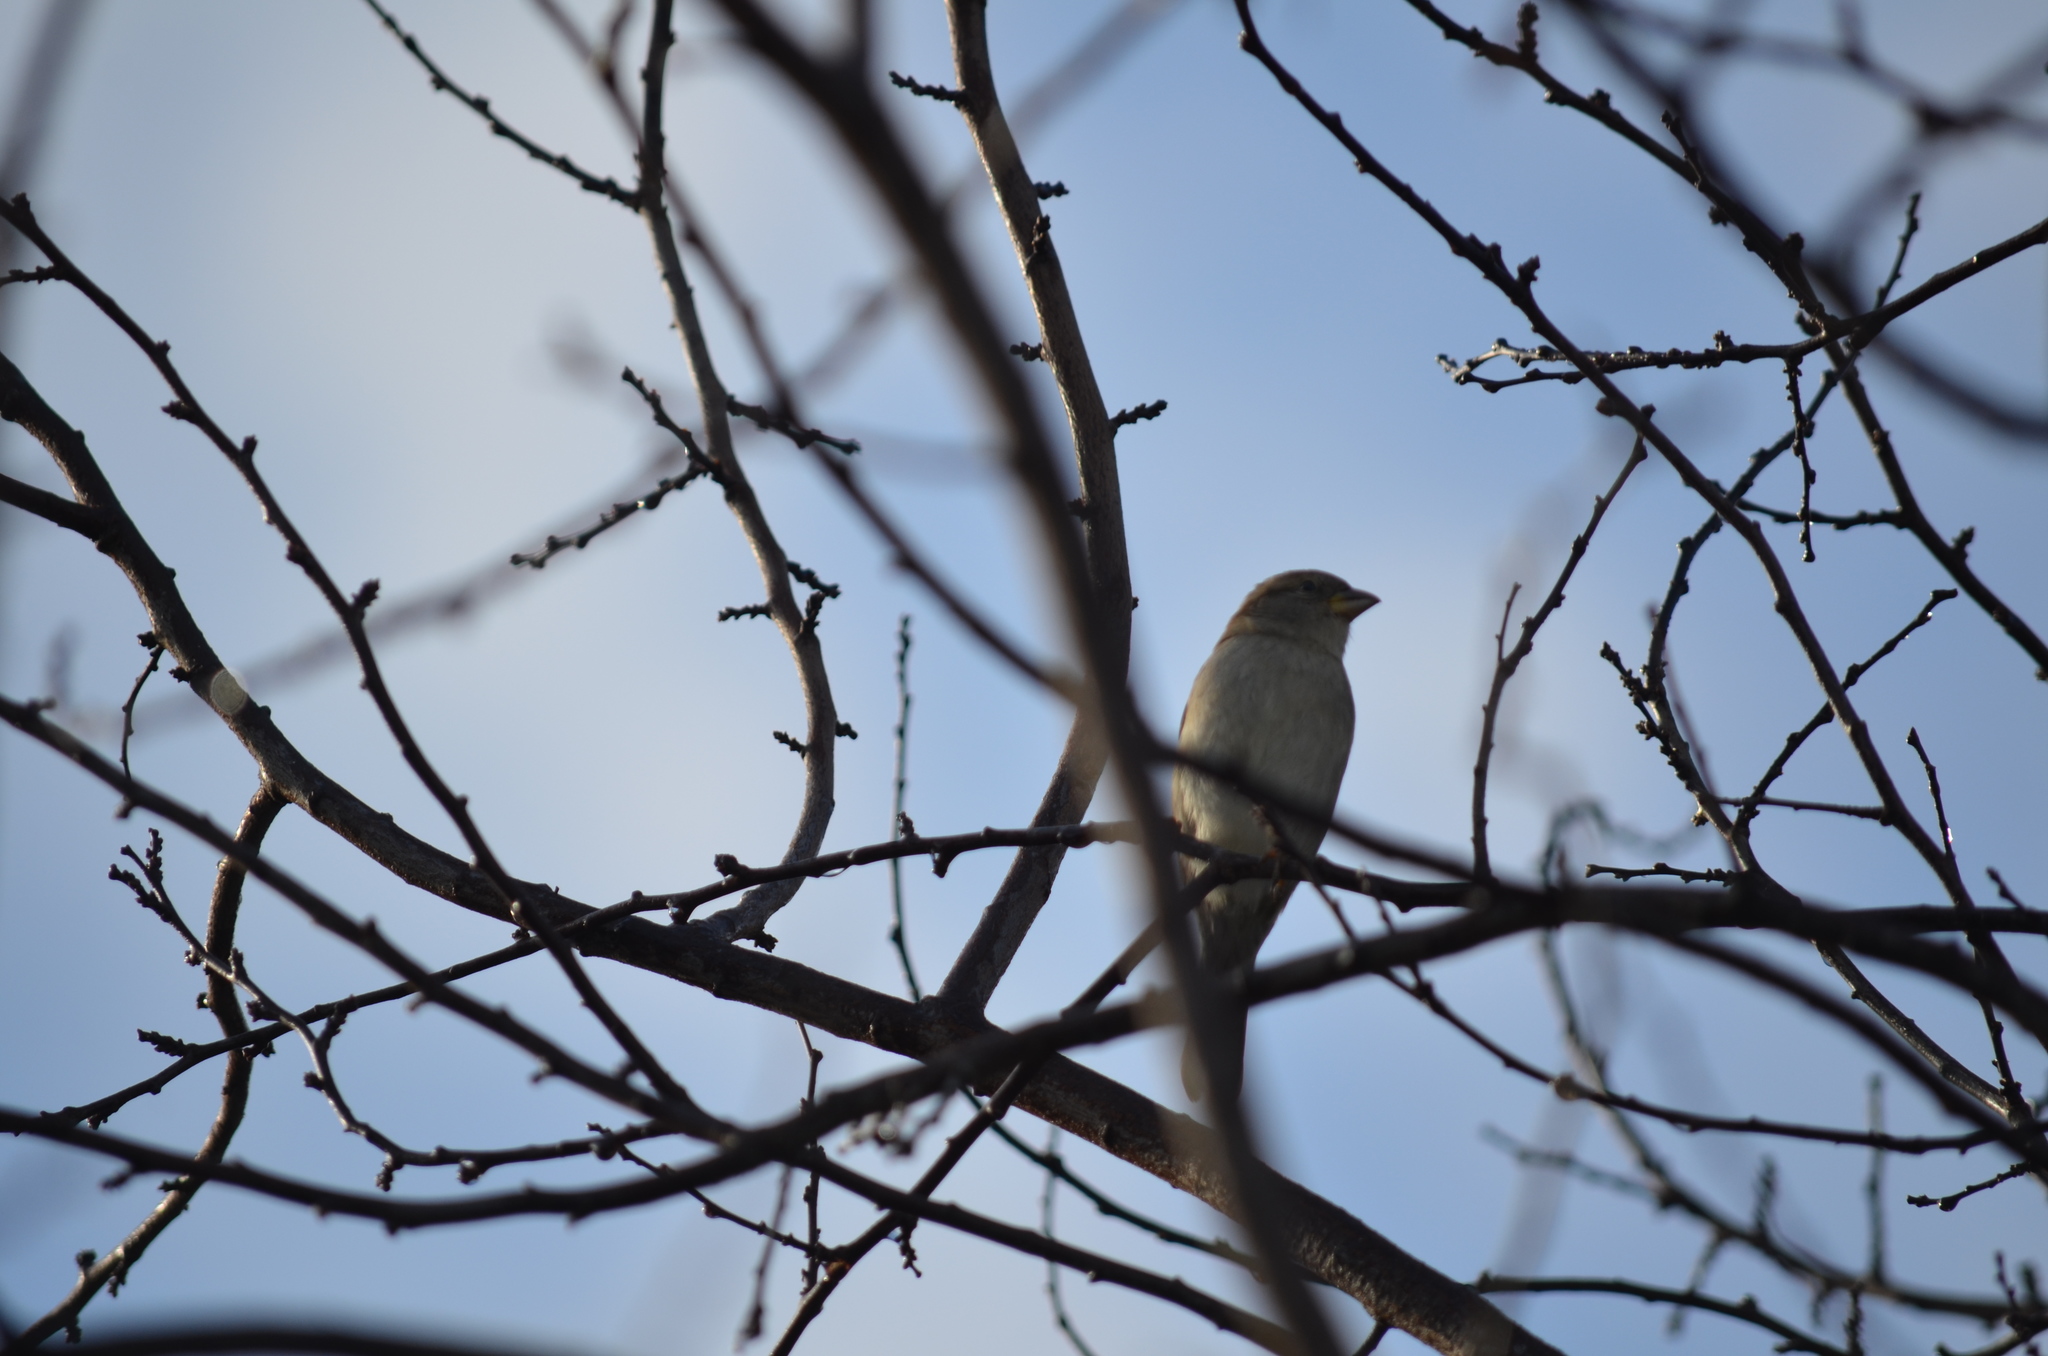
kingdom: Animalia
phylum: Chordata
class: Aves
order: Passeriformes
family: Passeridae
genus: Passer
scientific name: Passer domesticus
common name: House sparrow
